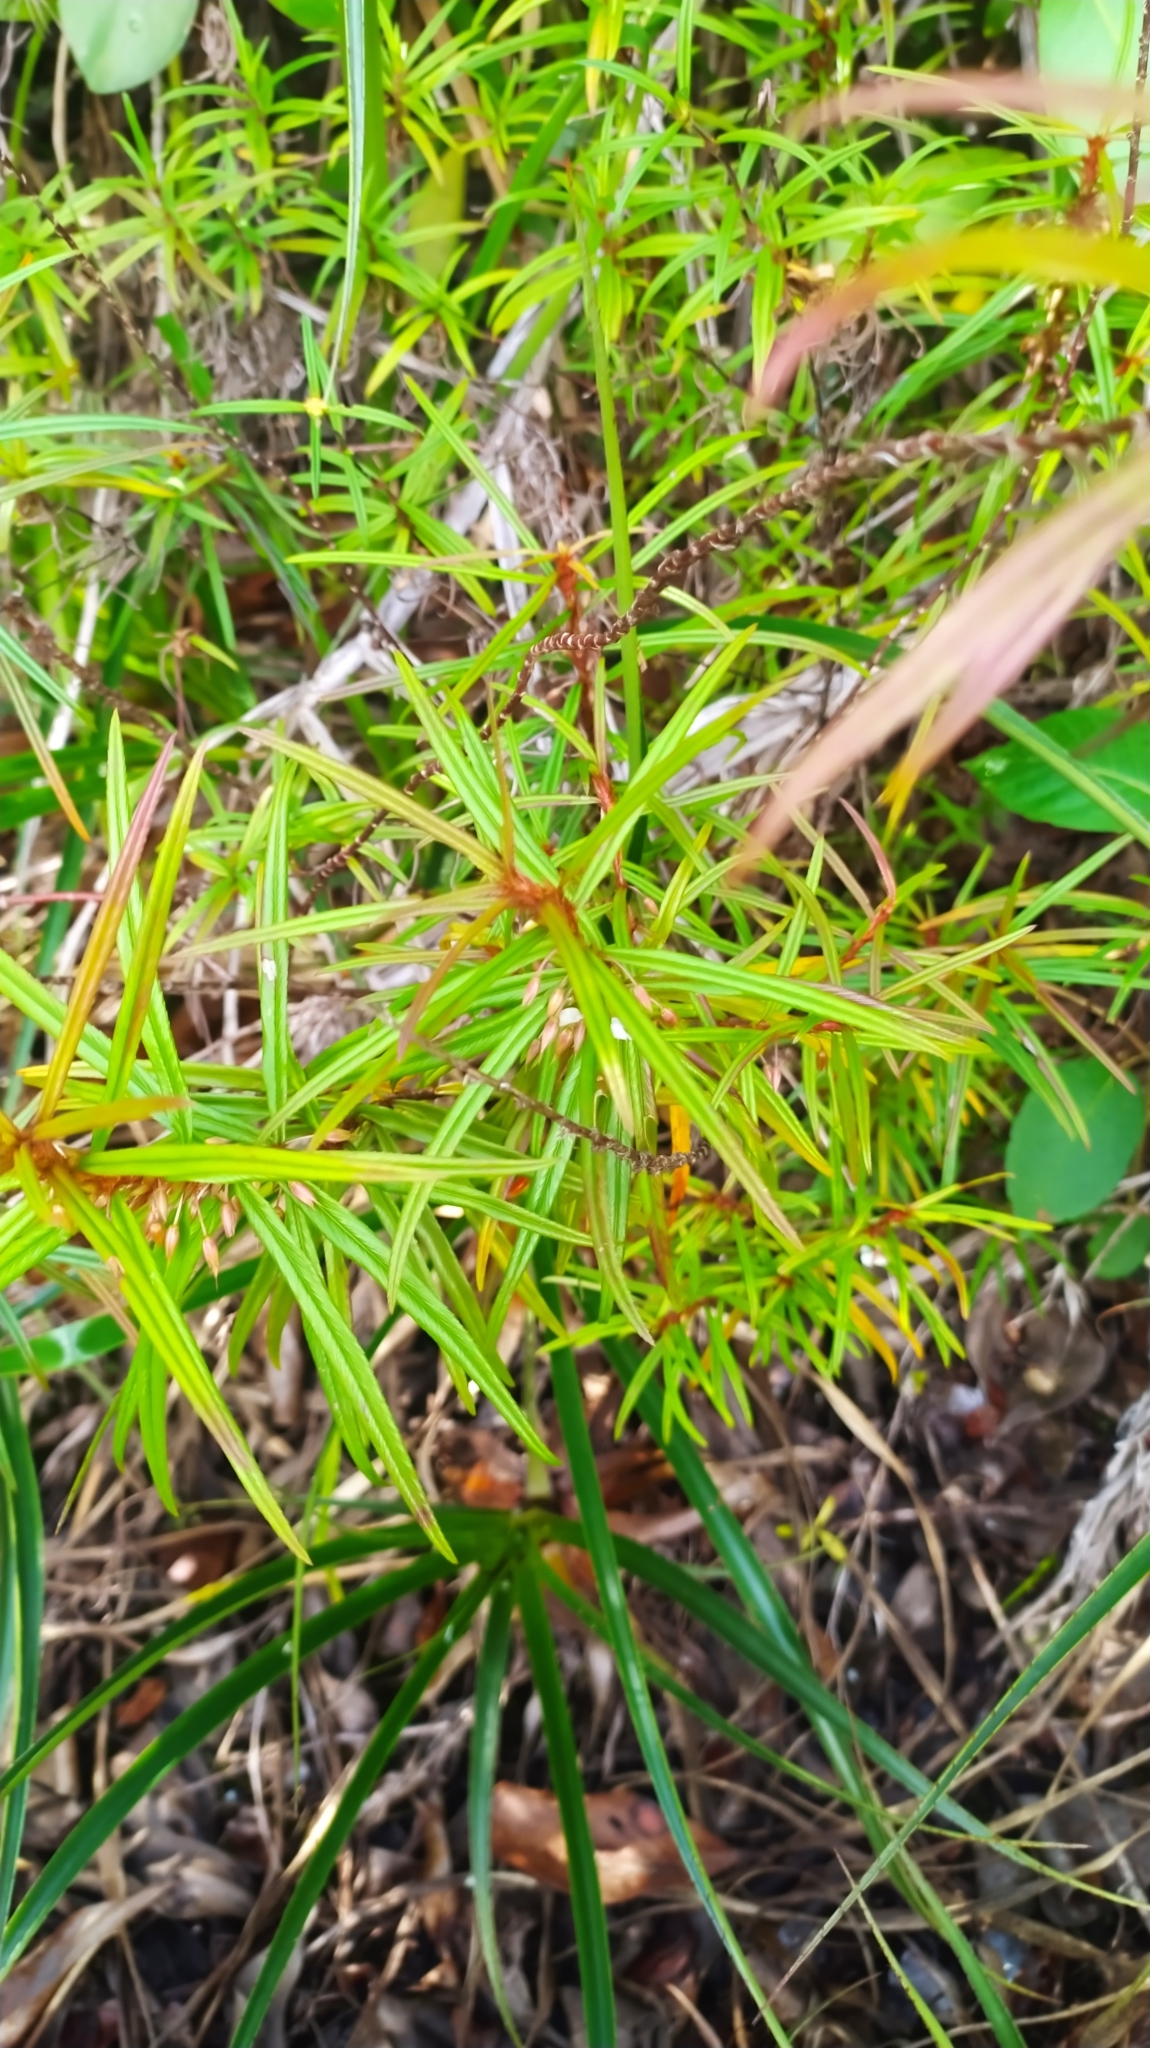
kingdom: Plantae
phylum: Tracheophyta
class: Magnoliopsida
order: Malpighiales
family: Ochnaceae
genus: Sauvagesia
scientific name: Sauvagesia aliciae
